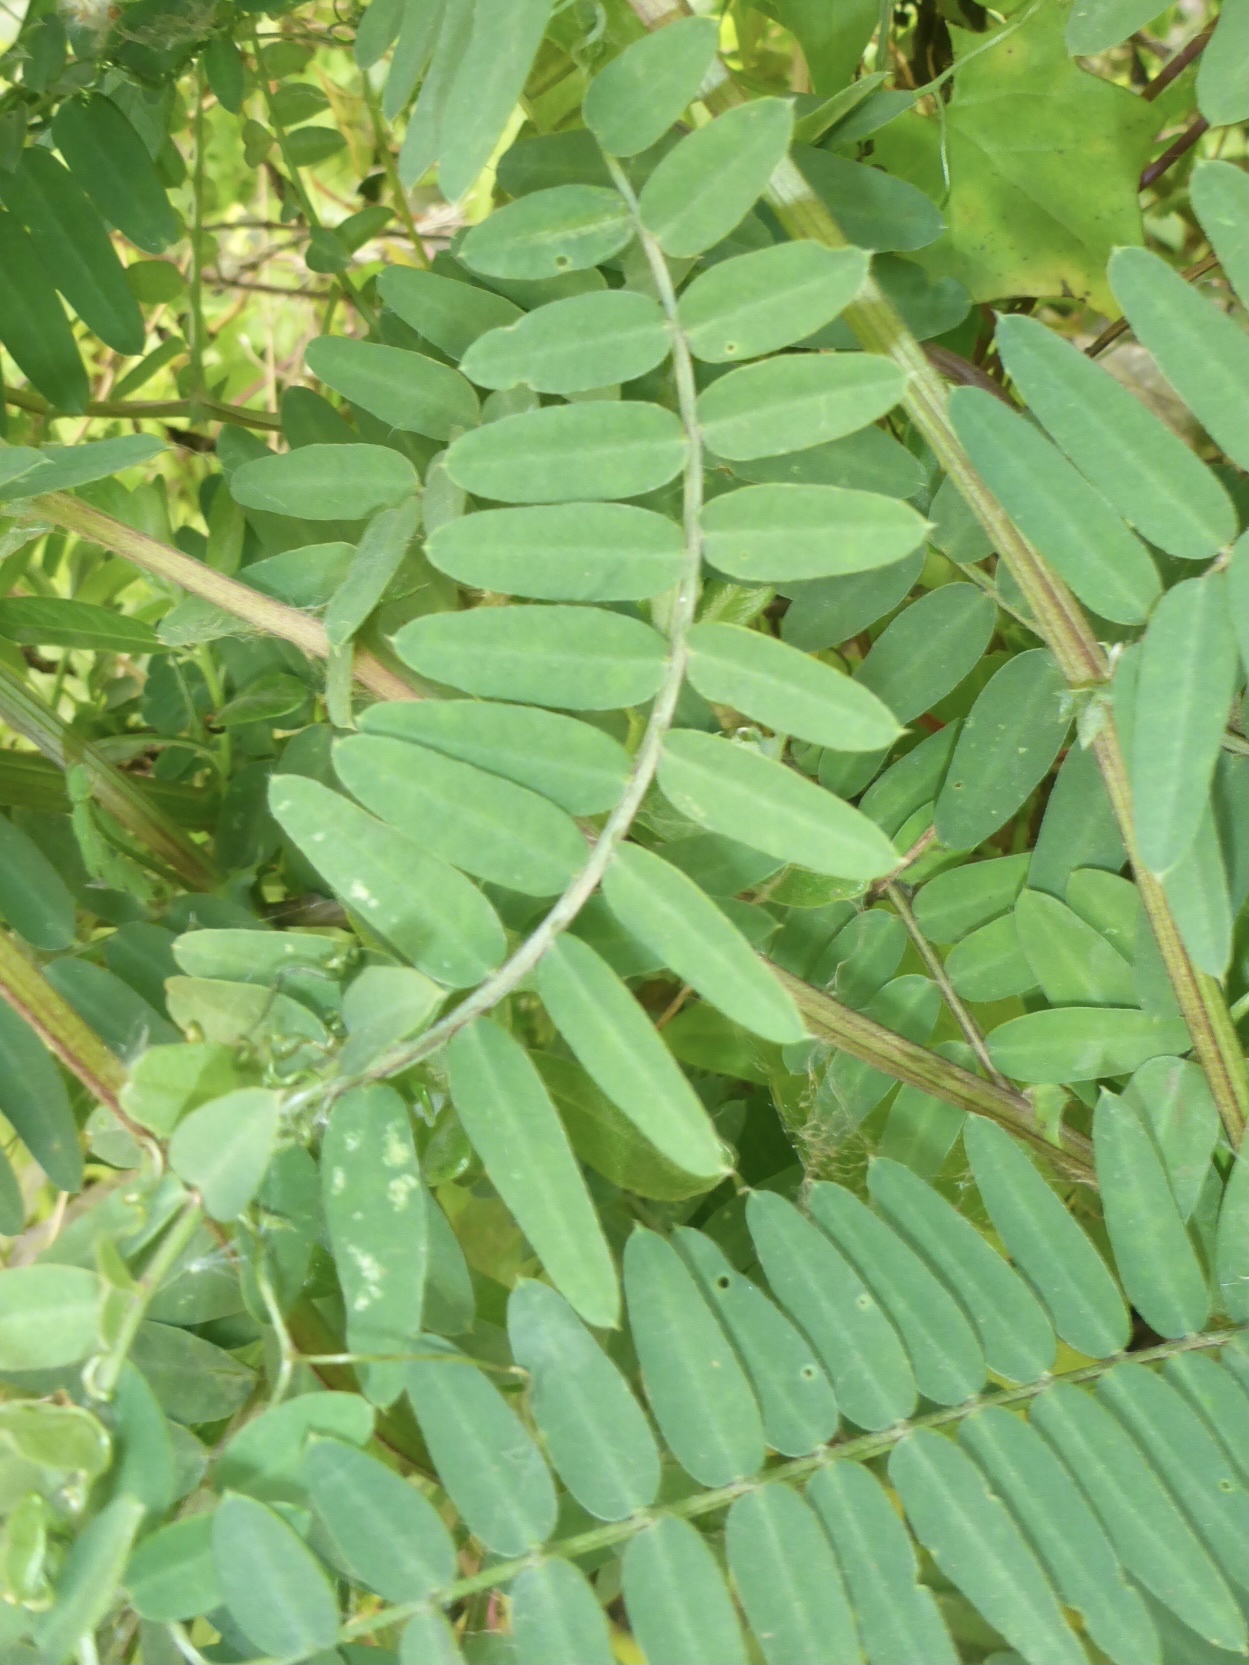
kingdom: Plantae
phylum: Tracheophyta
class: Magnoliopsida
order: Fabales
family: Fabaceae
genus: Vicia
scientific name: Vicia
